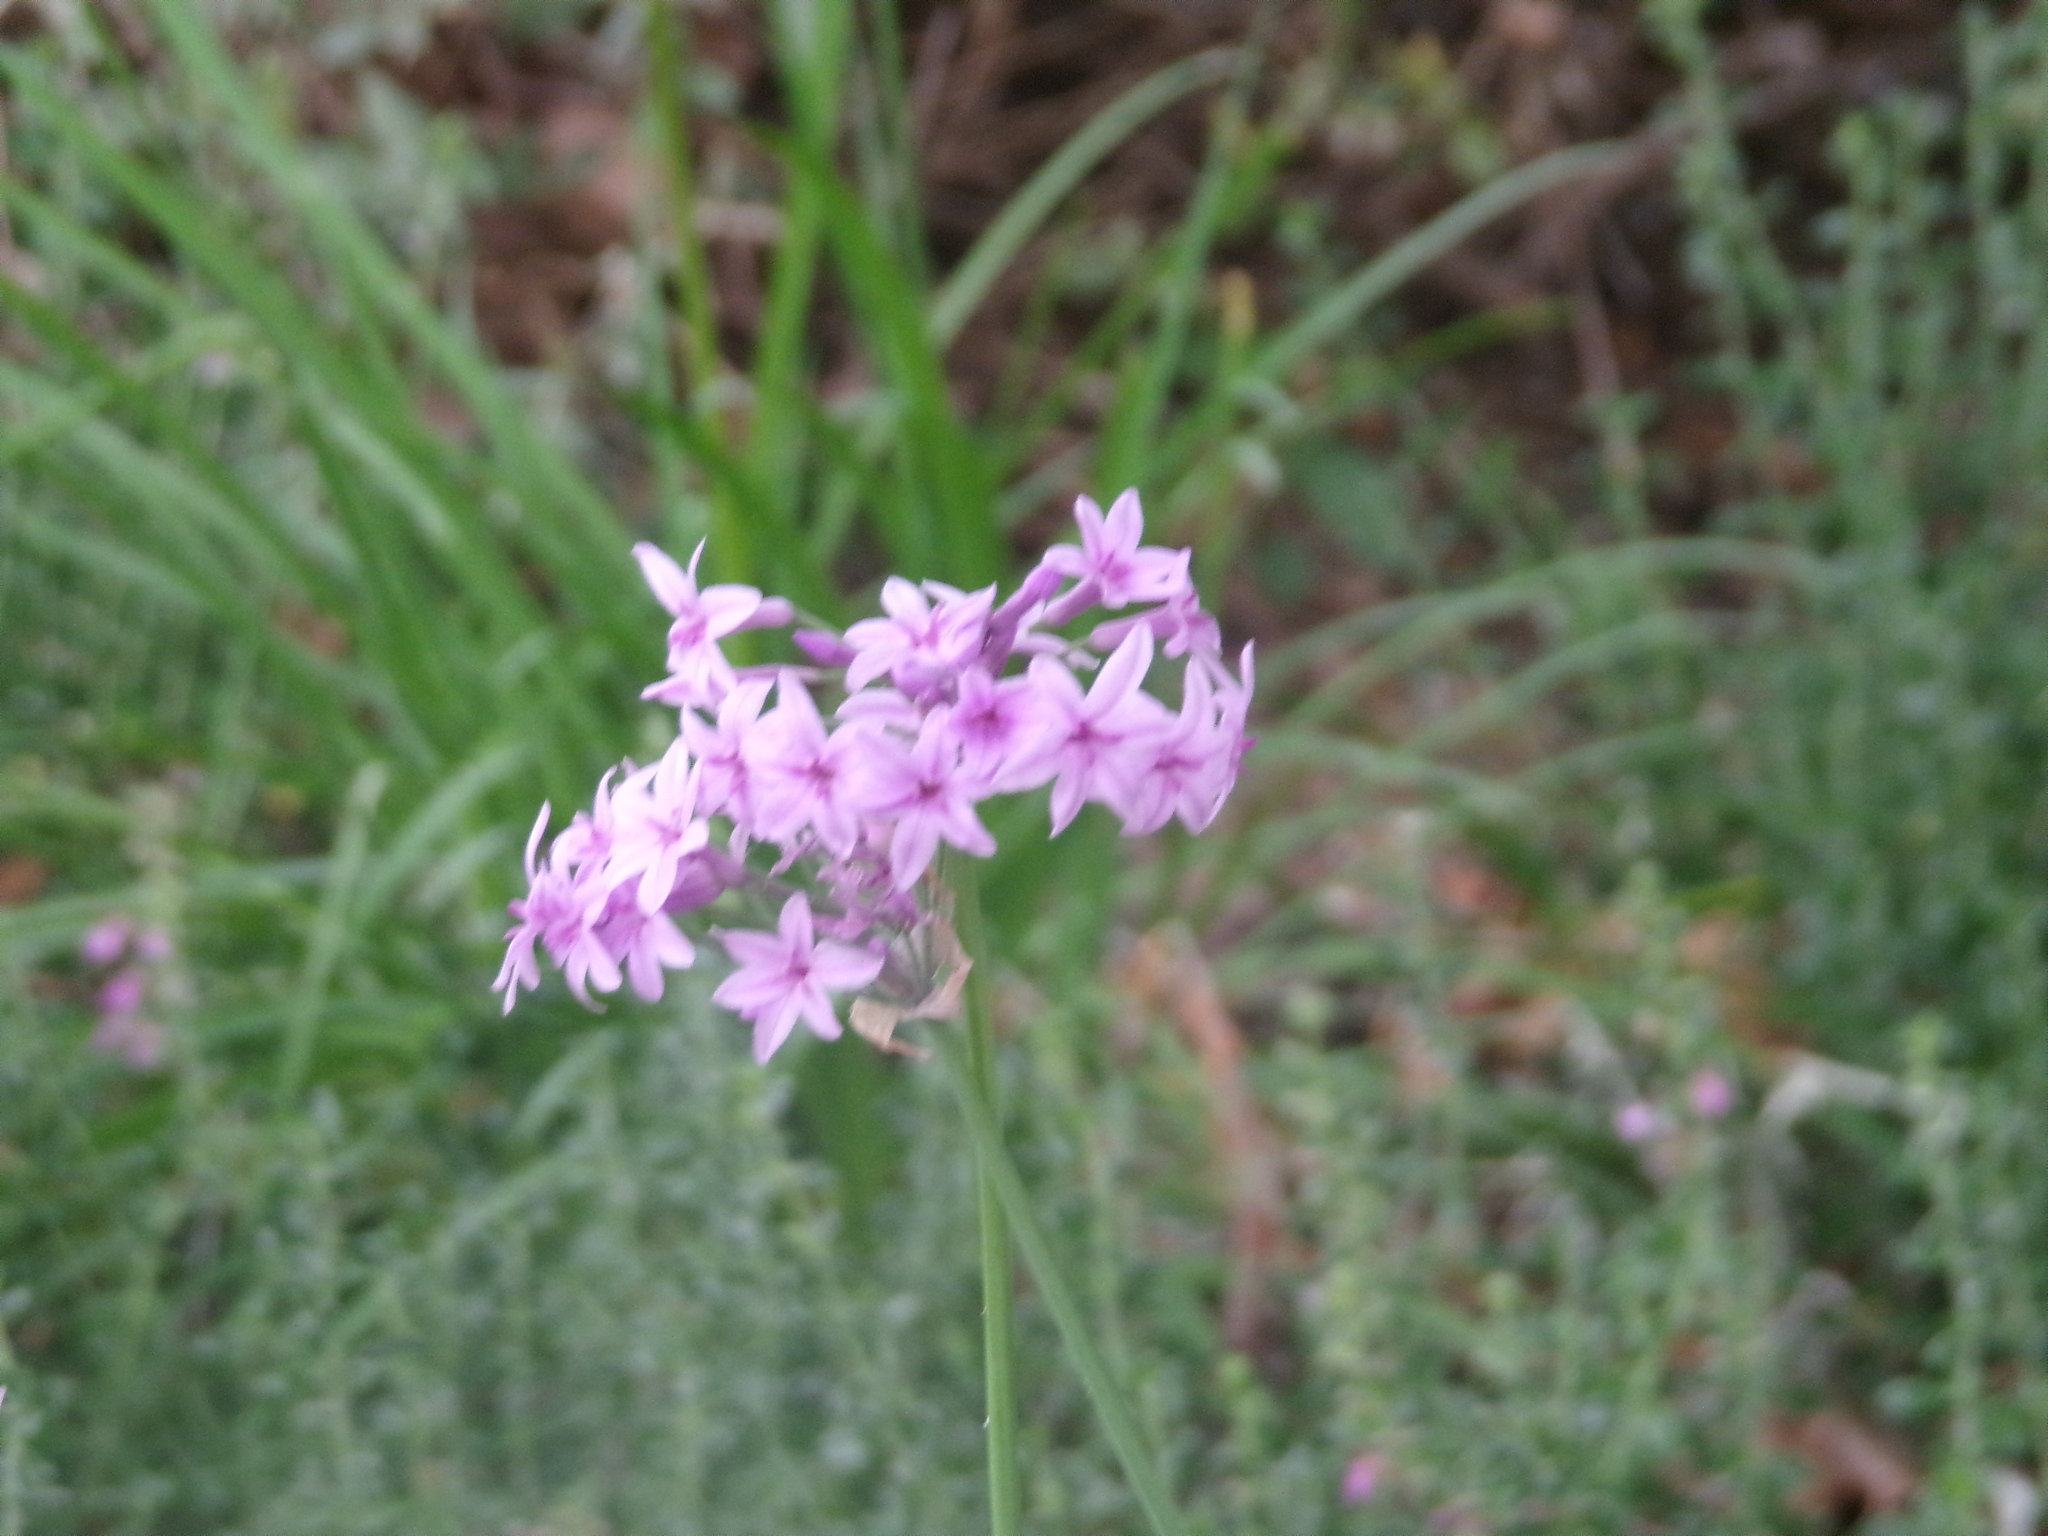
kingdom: Plantae
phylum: Tracheophyta
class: Liliopsida
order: Asparagales
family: Amaryllidaceae
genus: Tulbaghia
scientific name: Tulbaghia violacea
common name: Society garlic
